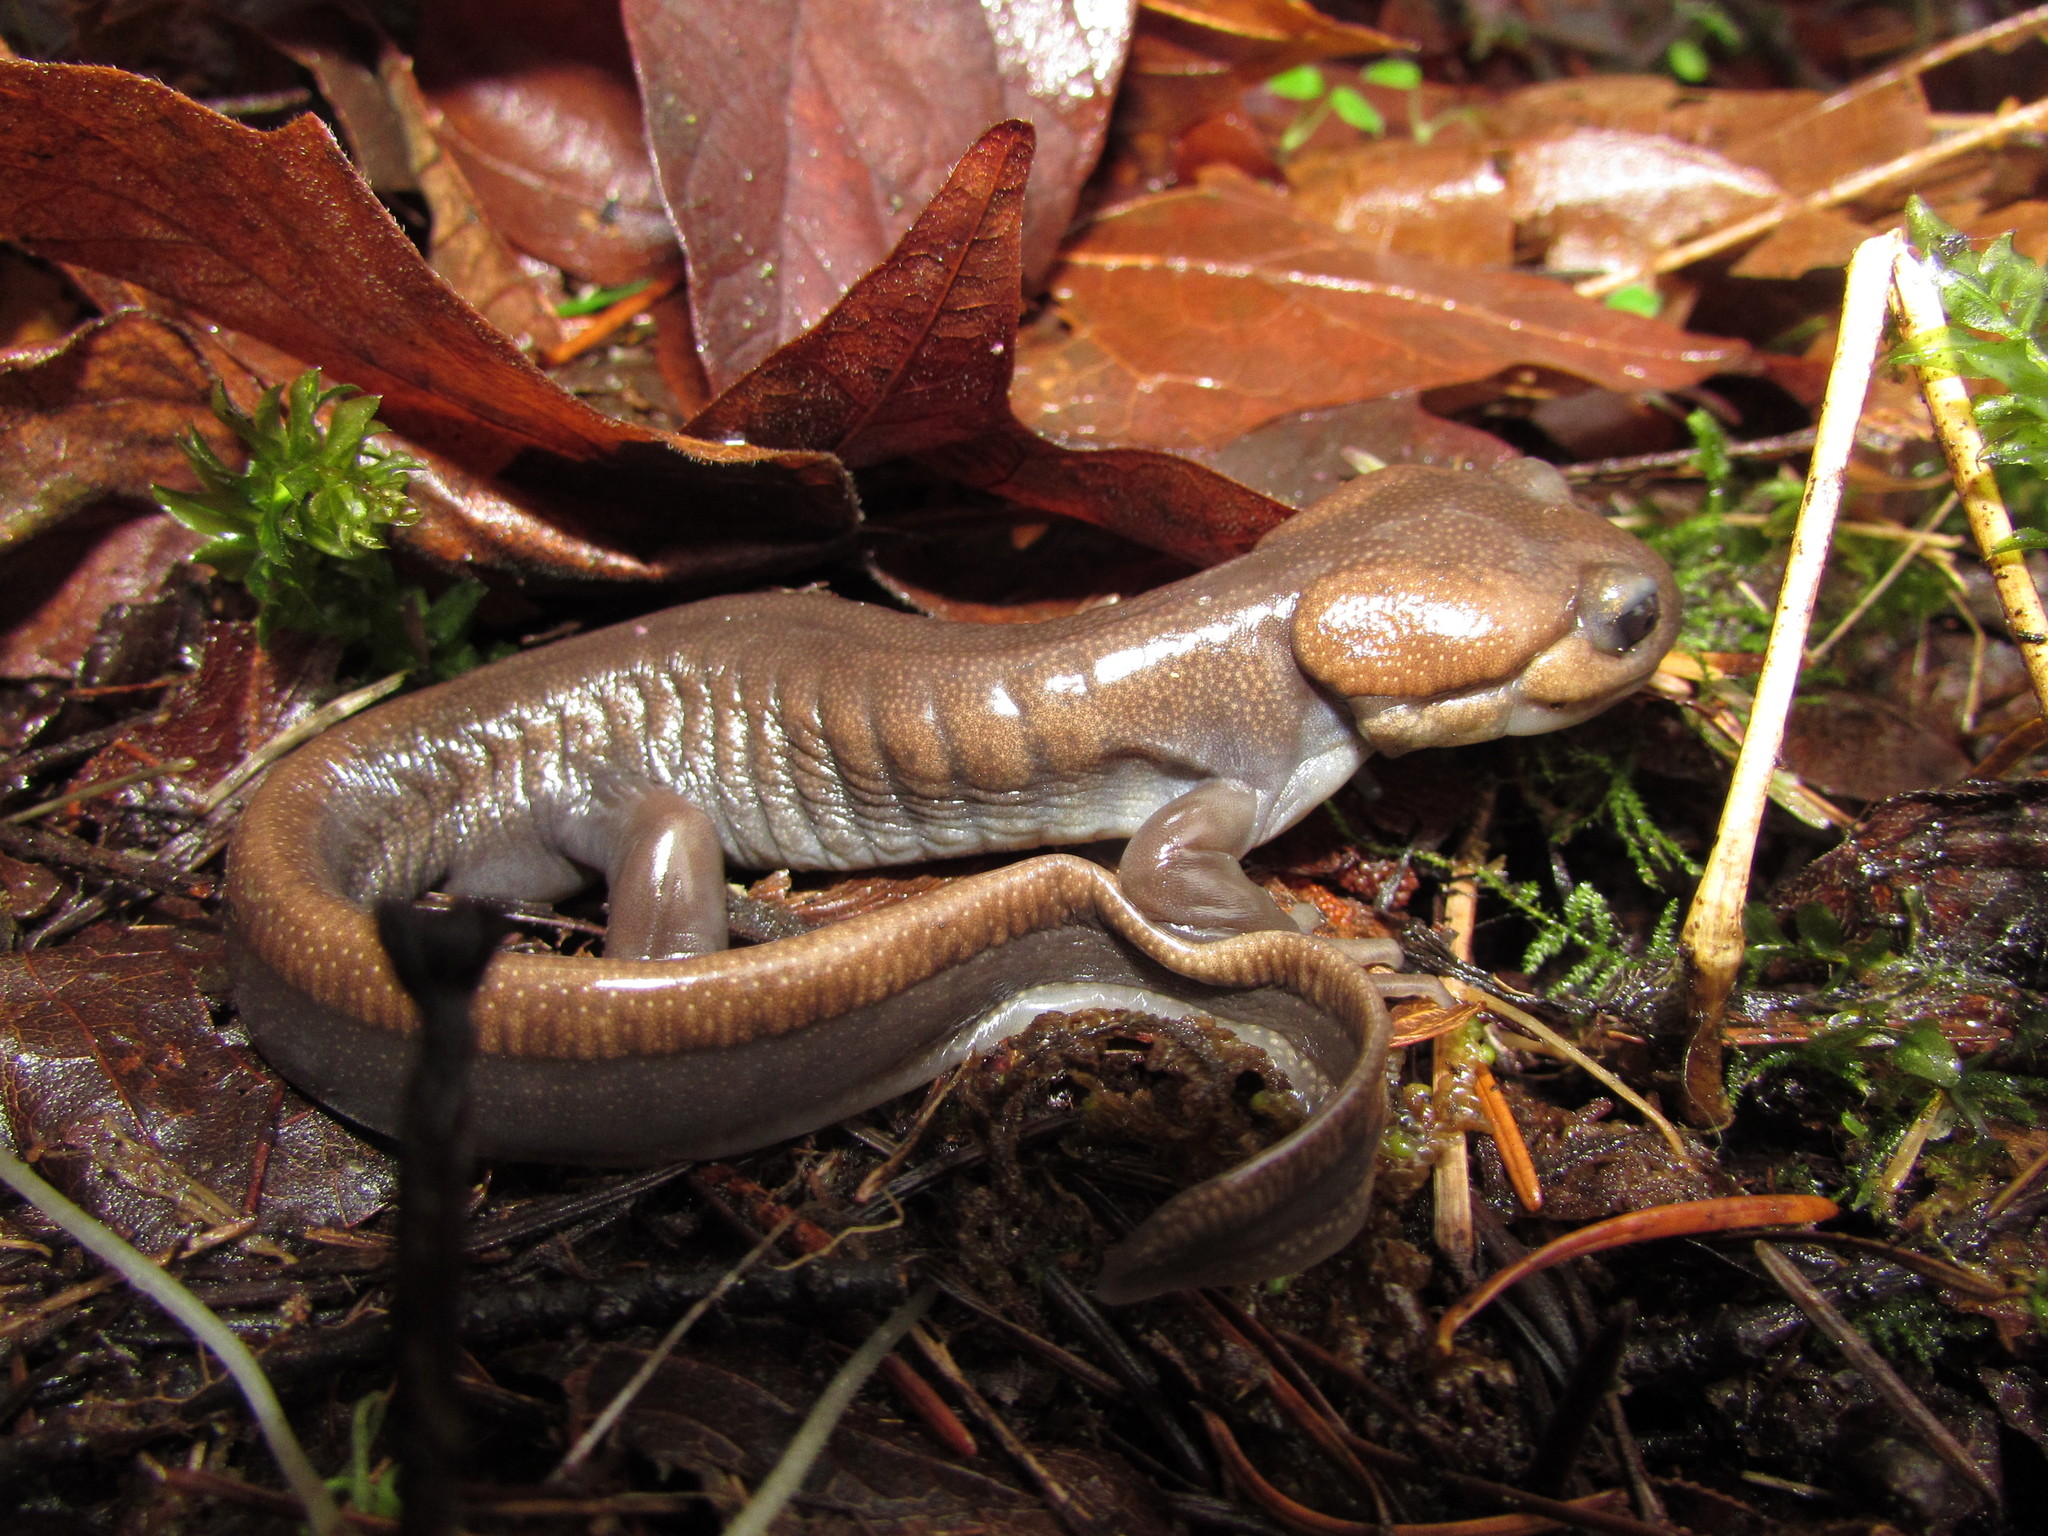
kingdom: Animalia
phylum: Chordata
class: Amphibia
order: Caudata
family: Ambystomatidae
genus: Ambystoma
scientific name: Ambystoma gracile
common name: Northwestern salamander
